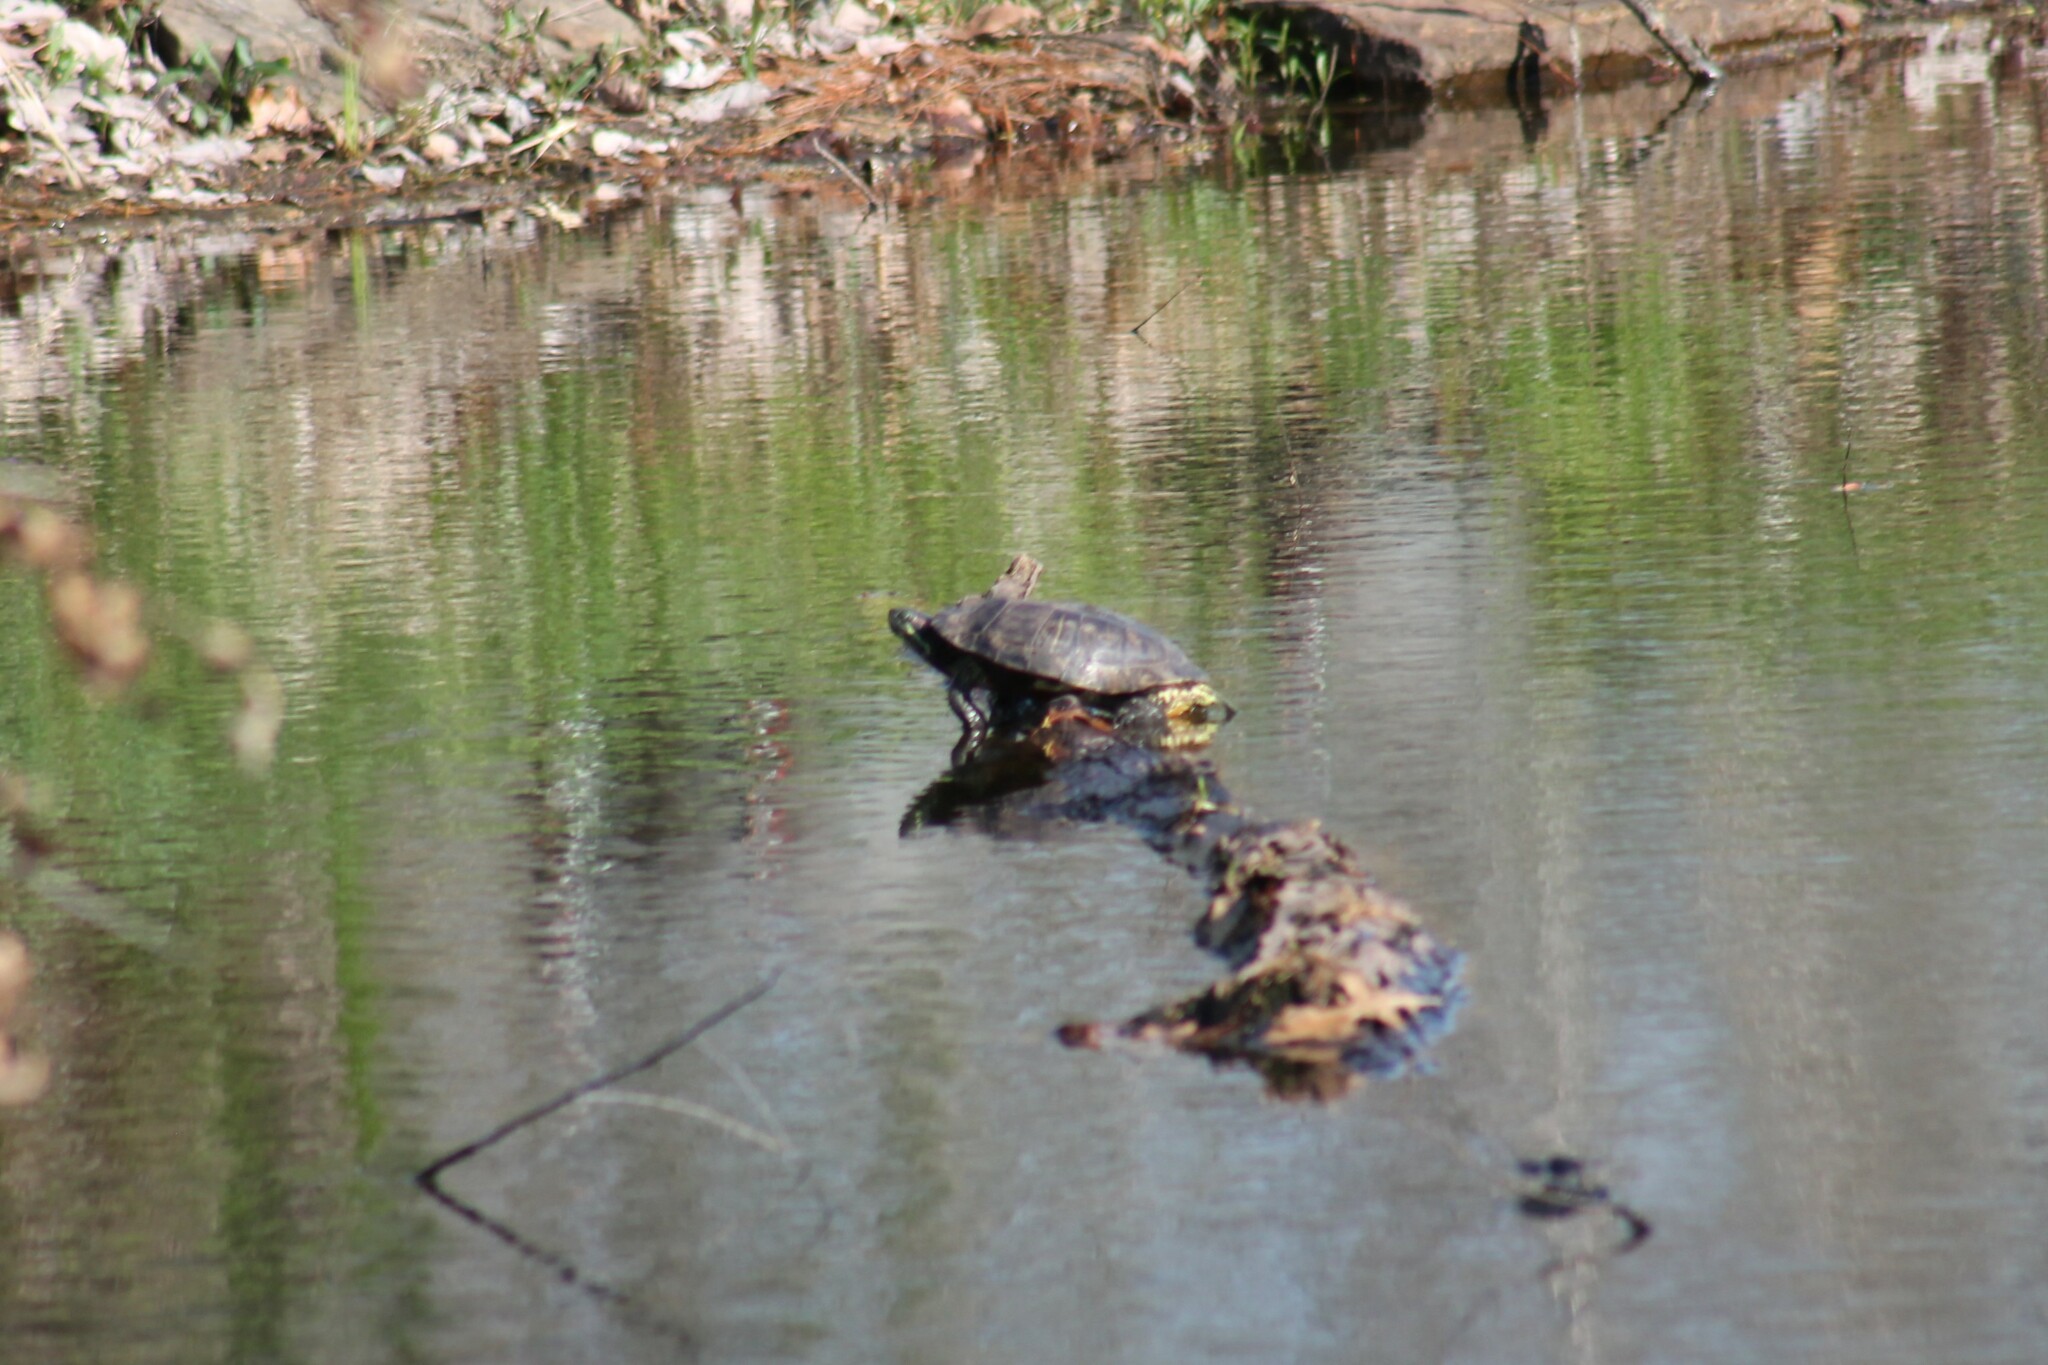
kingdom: Animalia
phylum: Chordata
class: Testudines
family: Emydidae
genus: Trachemys
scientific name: Trachemys scripta
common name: Slider
